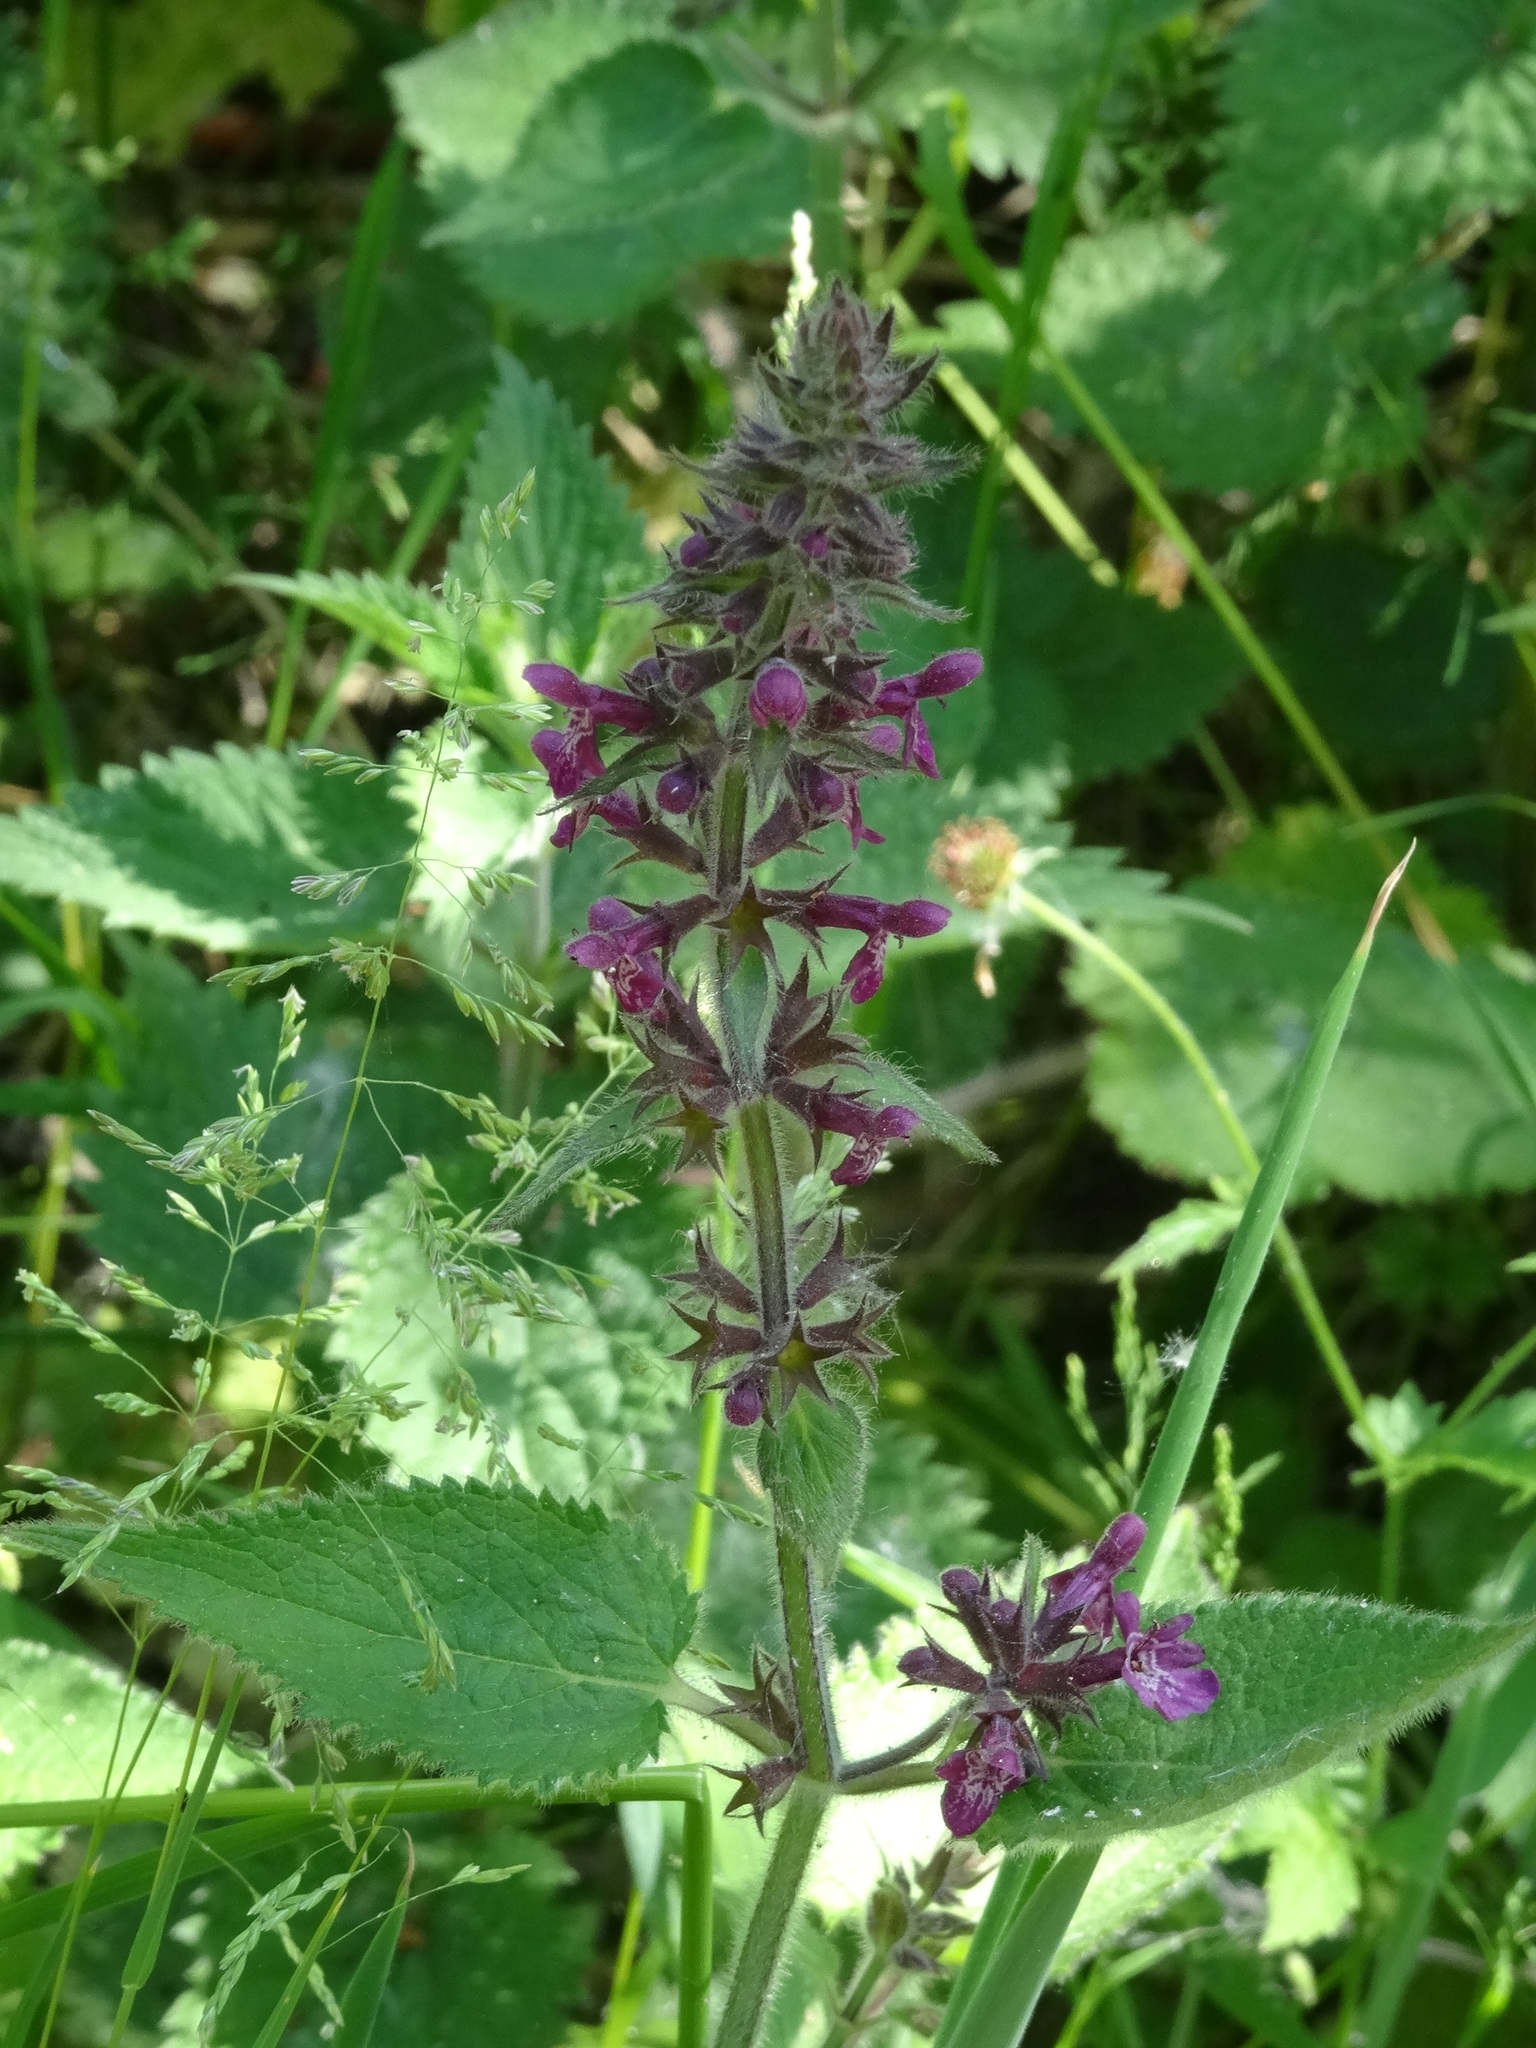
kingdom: Plantae
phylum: Tracheophyta
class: Magnoliopsida
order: Lamiales
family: Lamiaceae
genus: Stachys
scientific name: Stachys sylvatica
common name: Hedge woundwort
